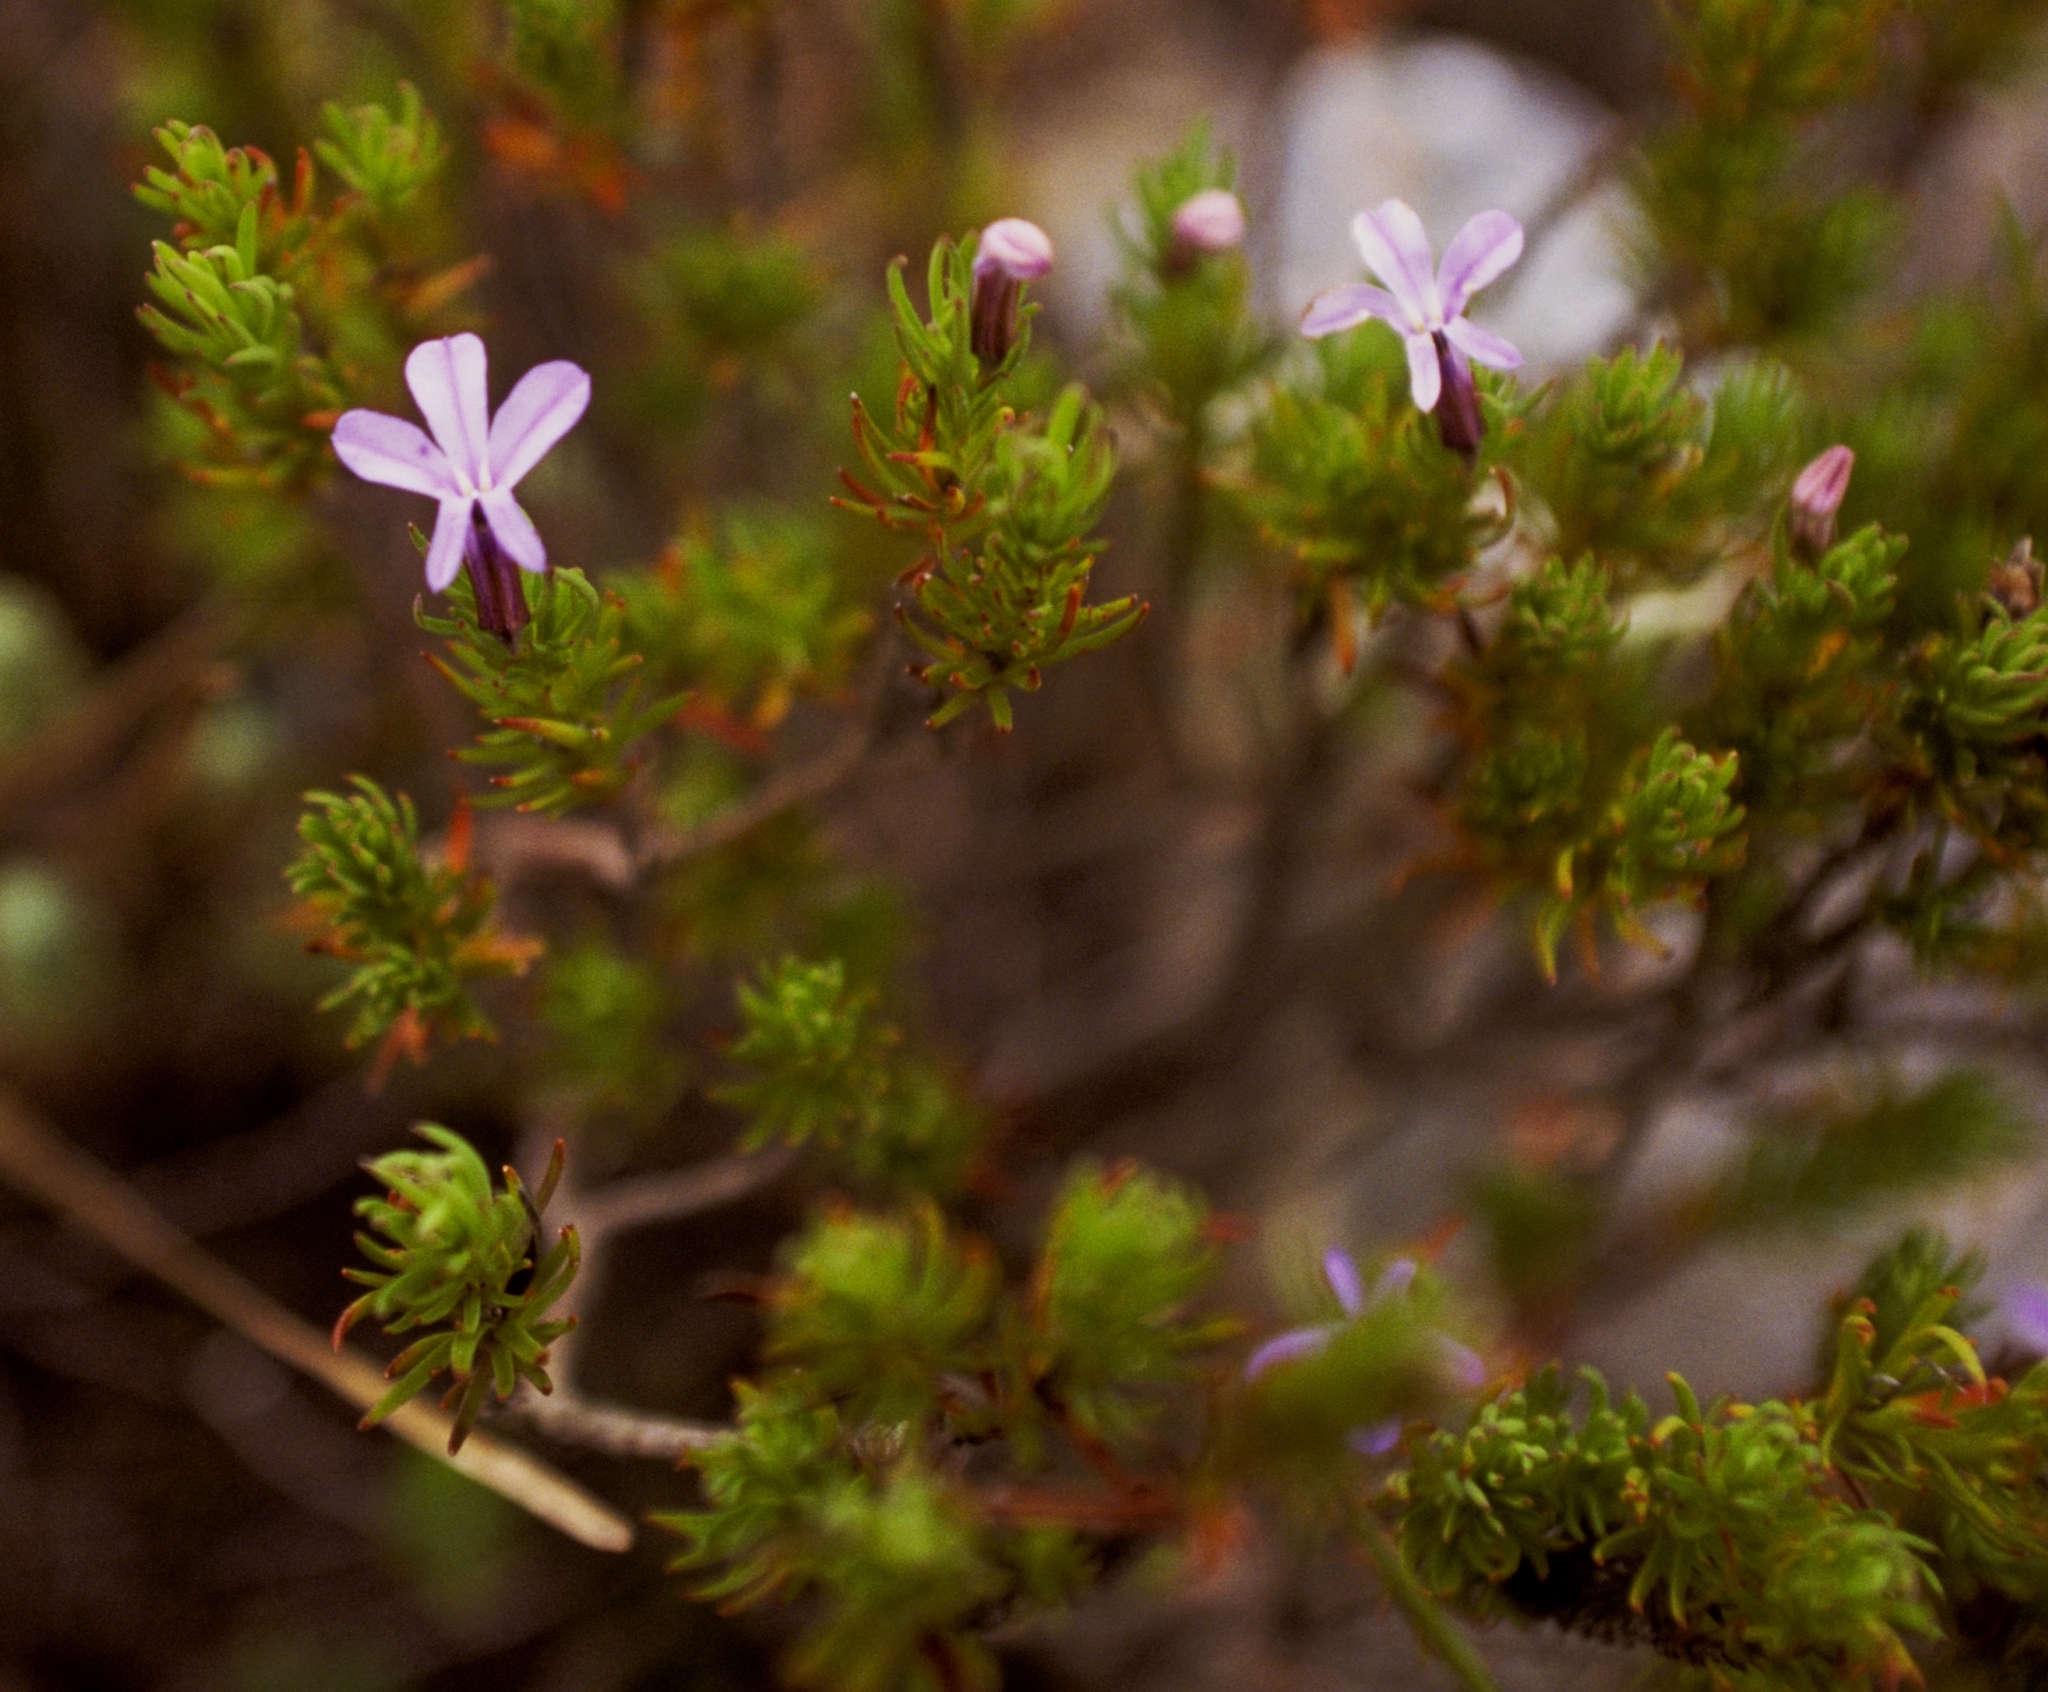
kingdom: Plantae
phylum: Tracheophyta
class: Magnoliopsida
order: Asterales
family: Campanulaceae
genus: Lobelia
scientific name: Lobelia pinifolia
